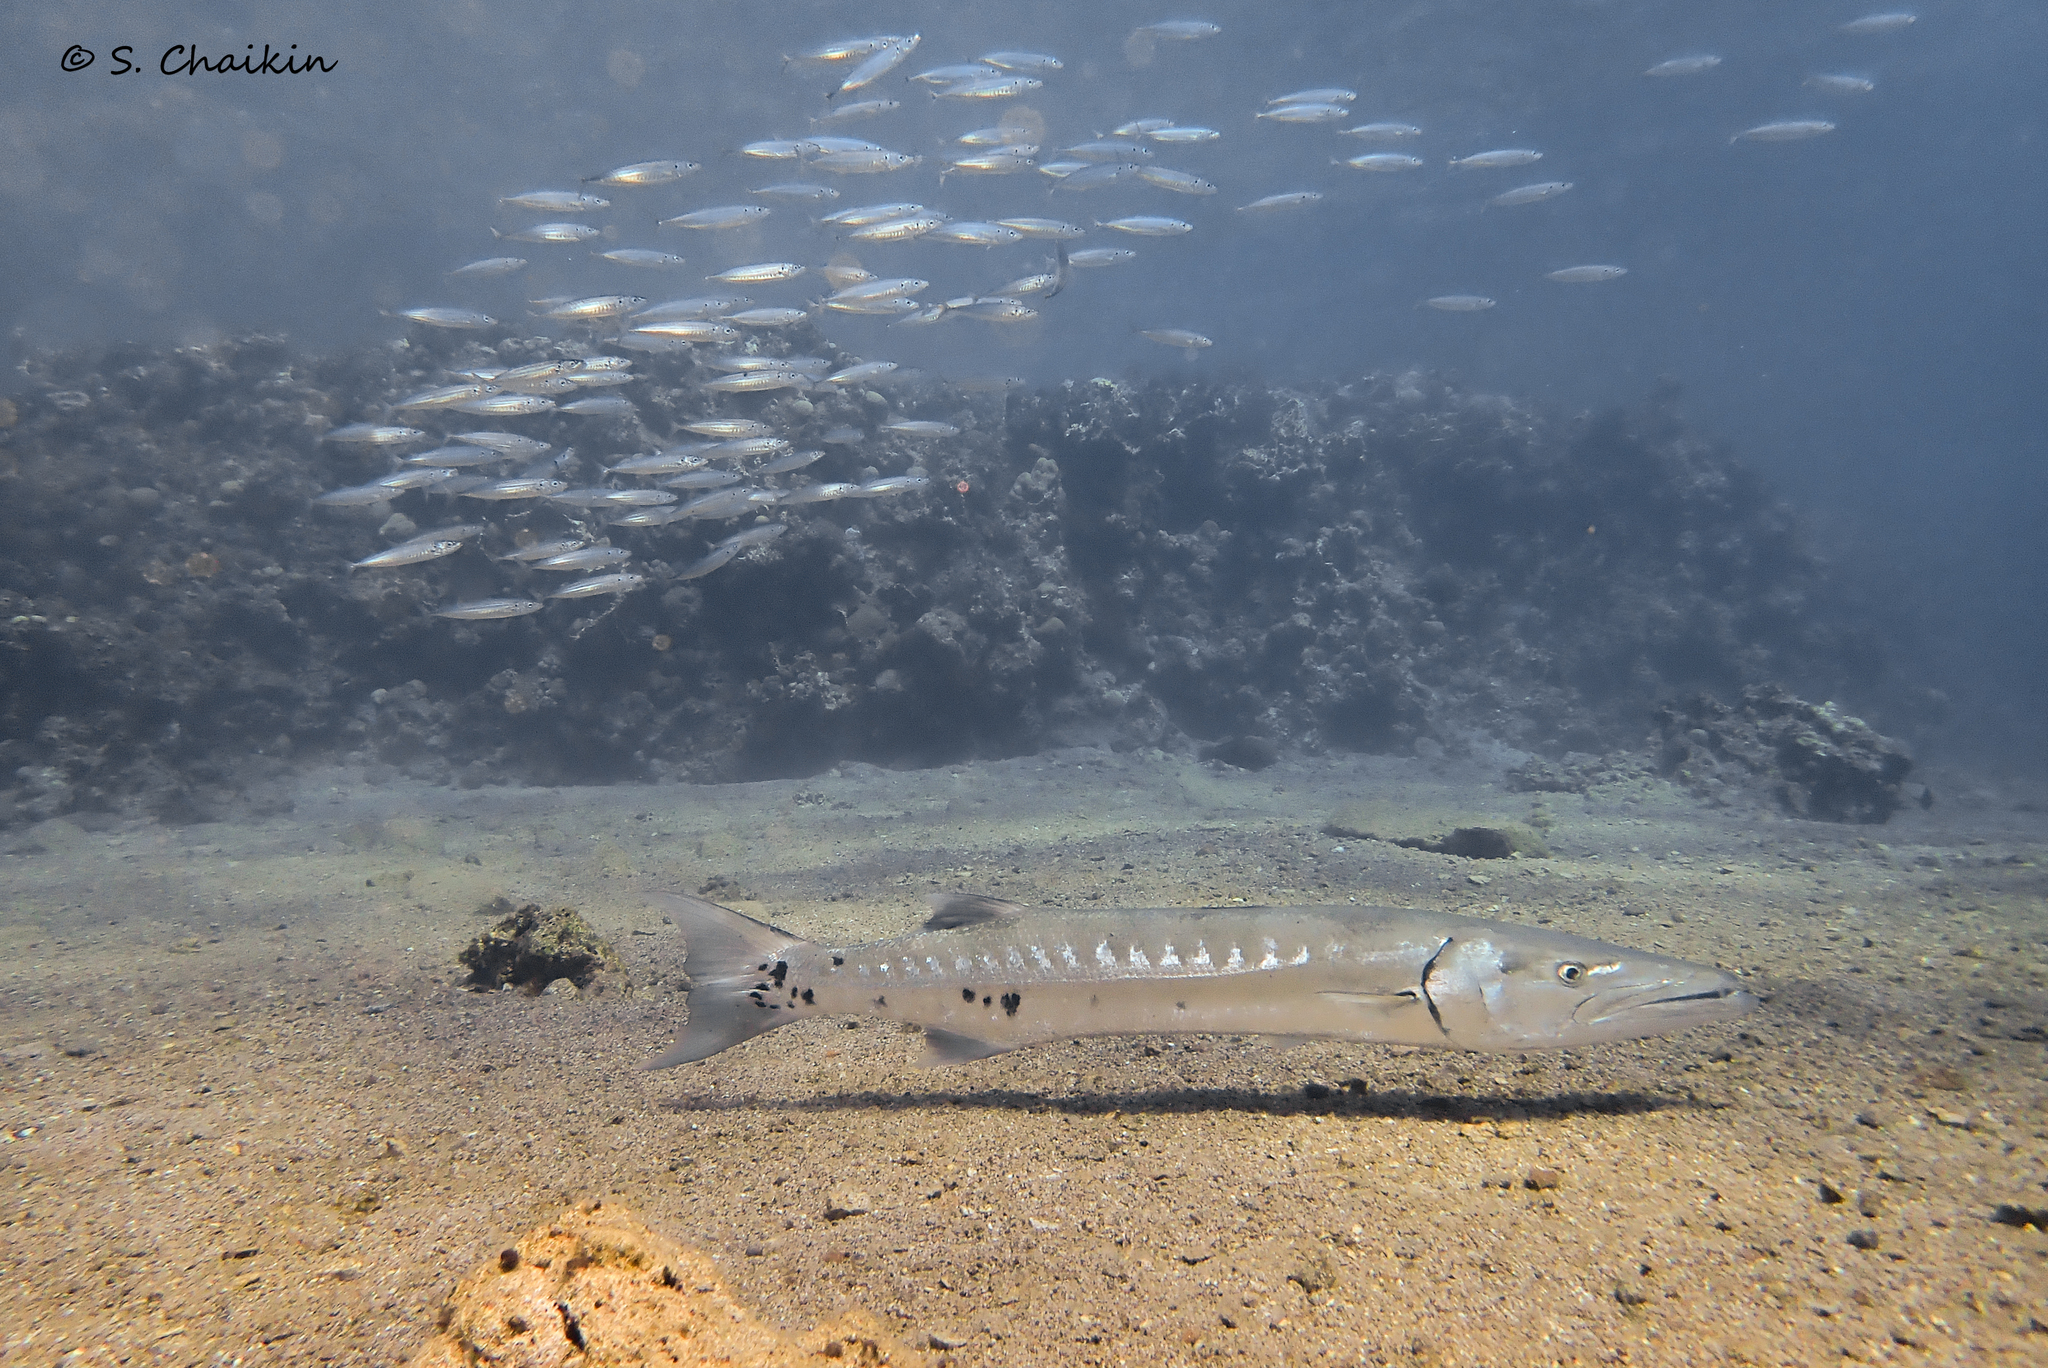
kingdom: Animalia
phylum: Chordata
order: Perciformes
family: Sphyraenidae
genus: Sphyraena
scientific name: Sphyraena barracuda
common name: Great barracuda
